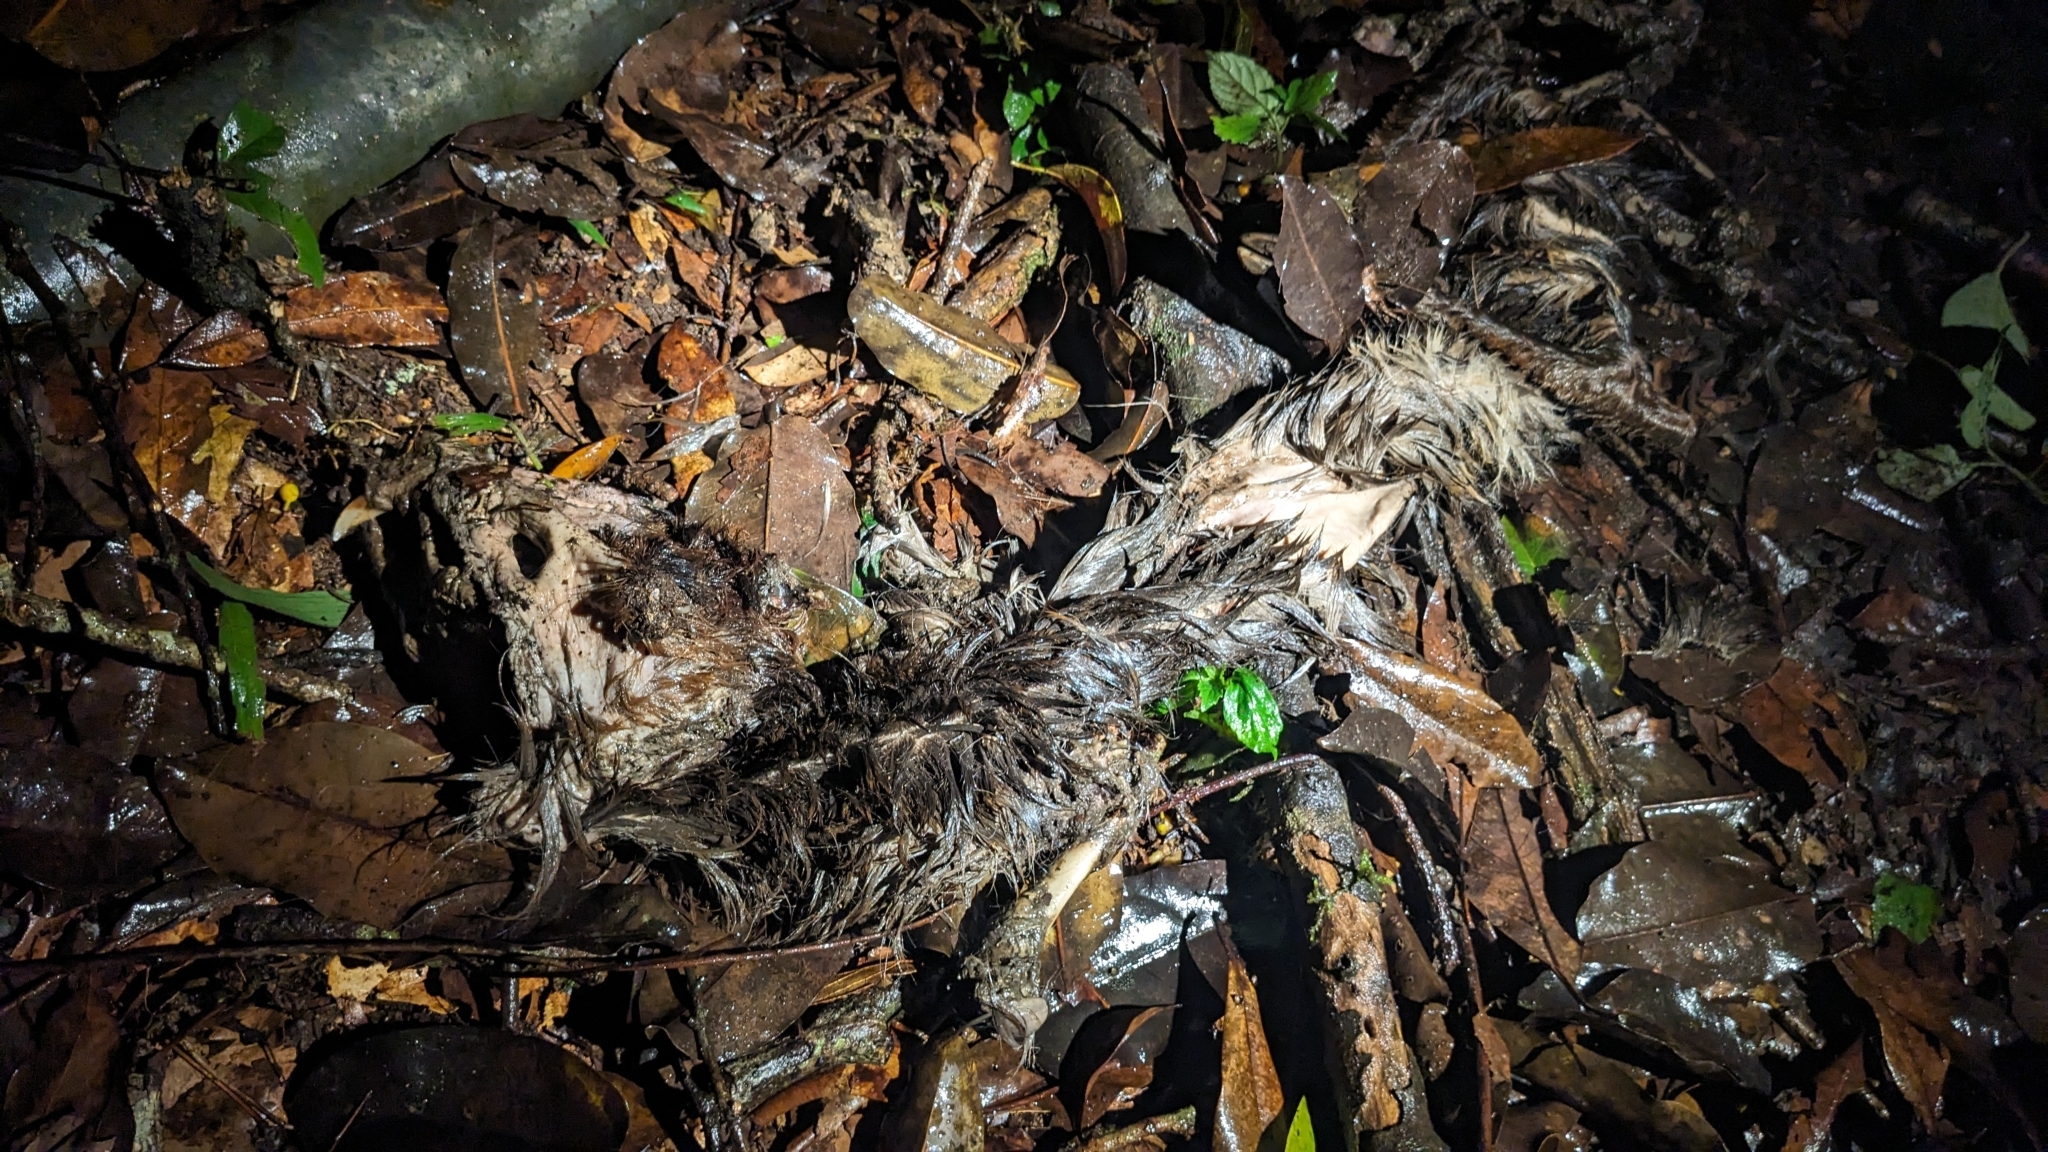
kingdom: Animalia
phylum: Chordata
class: Mammalia
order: Artiodactyla
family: Cervidae
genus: Muntiacus
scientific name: Muntiacus reevesi
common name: Reeves' muntjac
